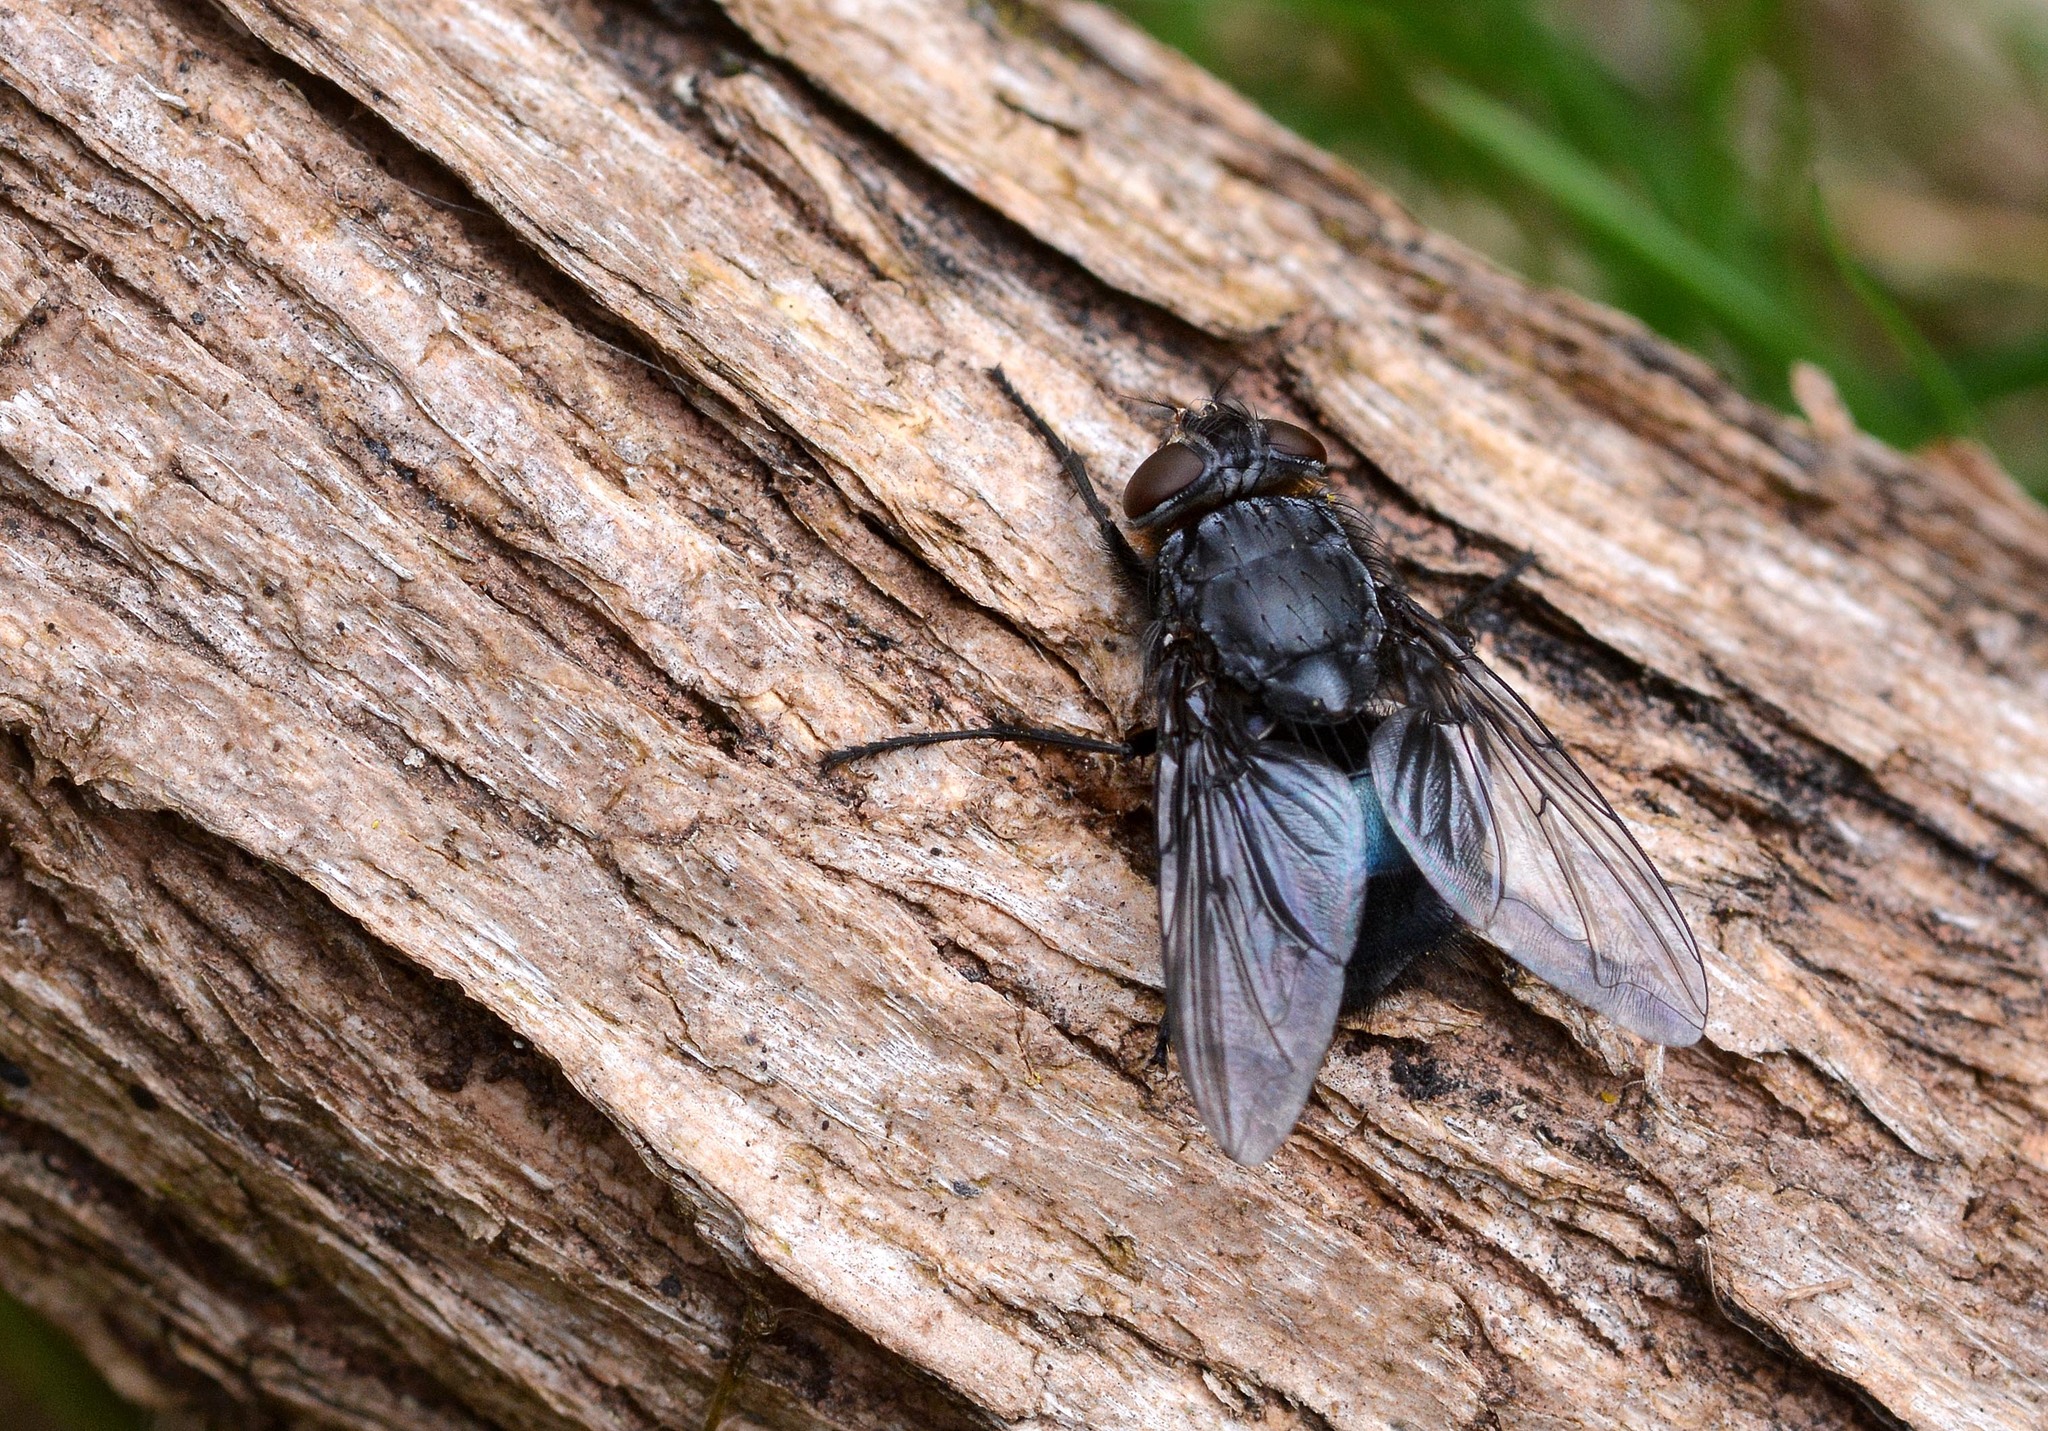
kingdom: Animalia
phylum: Arthropoda
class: Insecta
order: Diptera
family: Calliphoridae
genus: Calliphora
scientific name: Calliphora vomitoria
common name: Blue bottle fly
